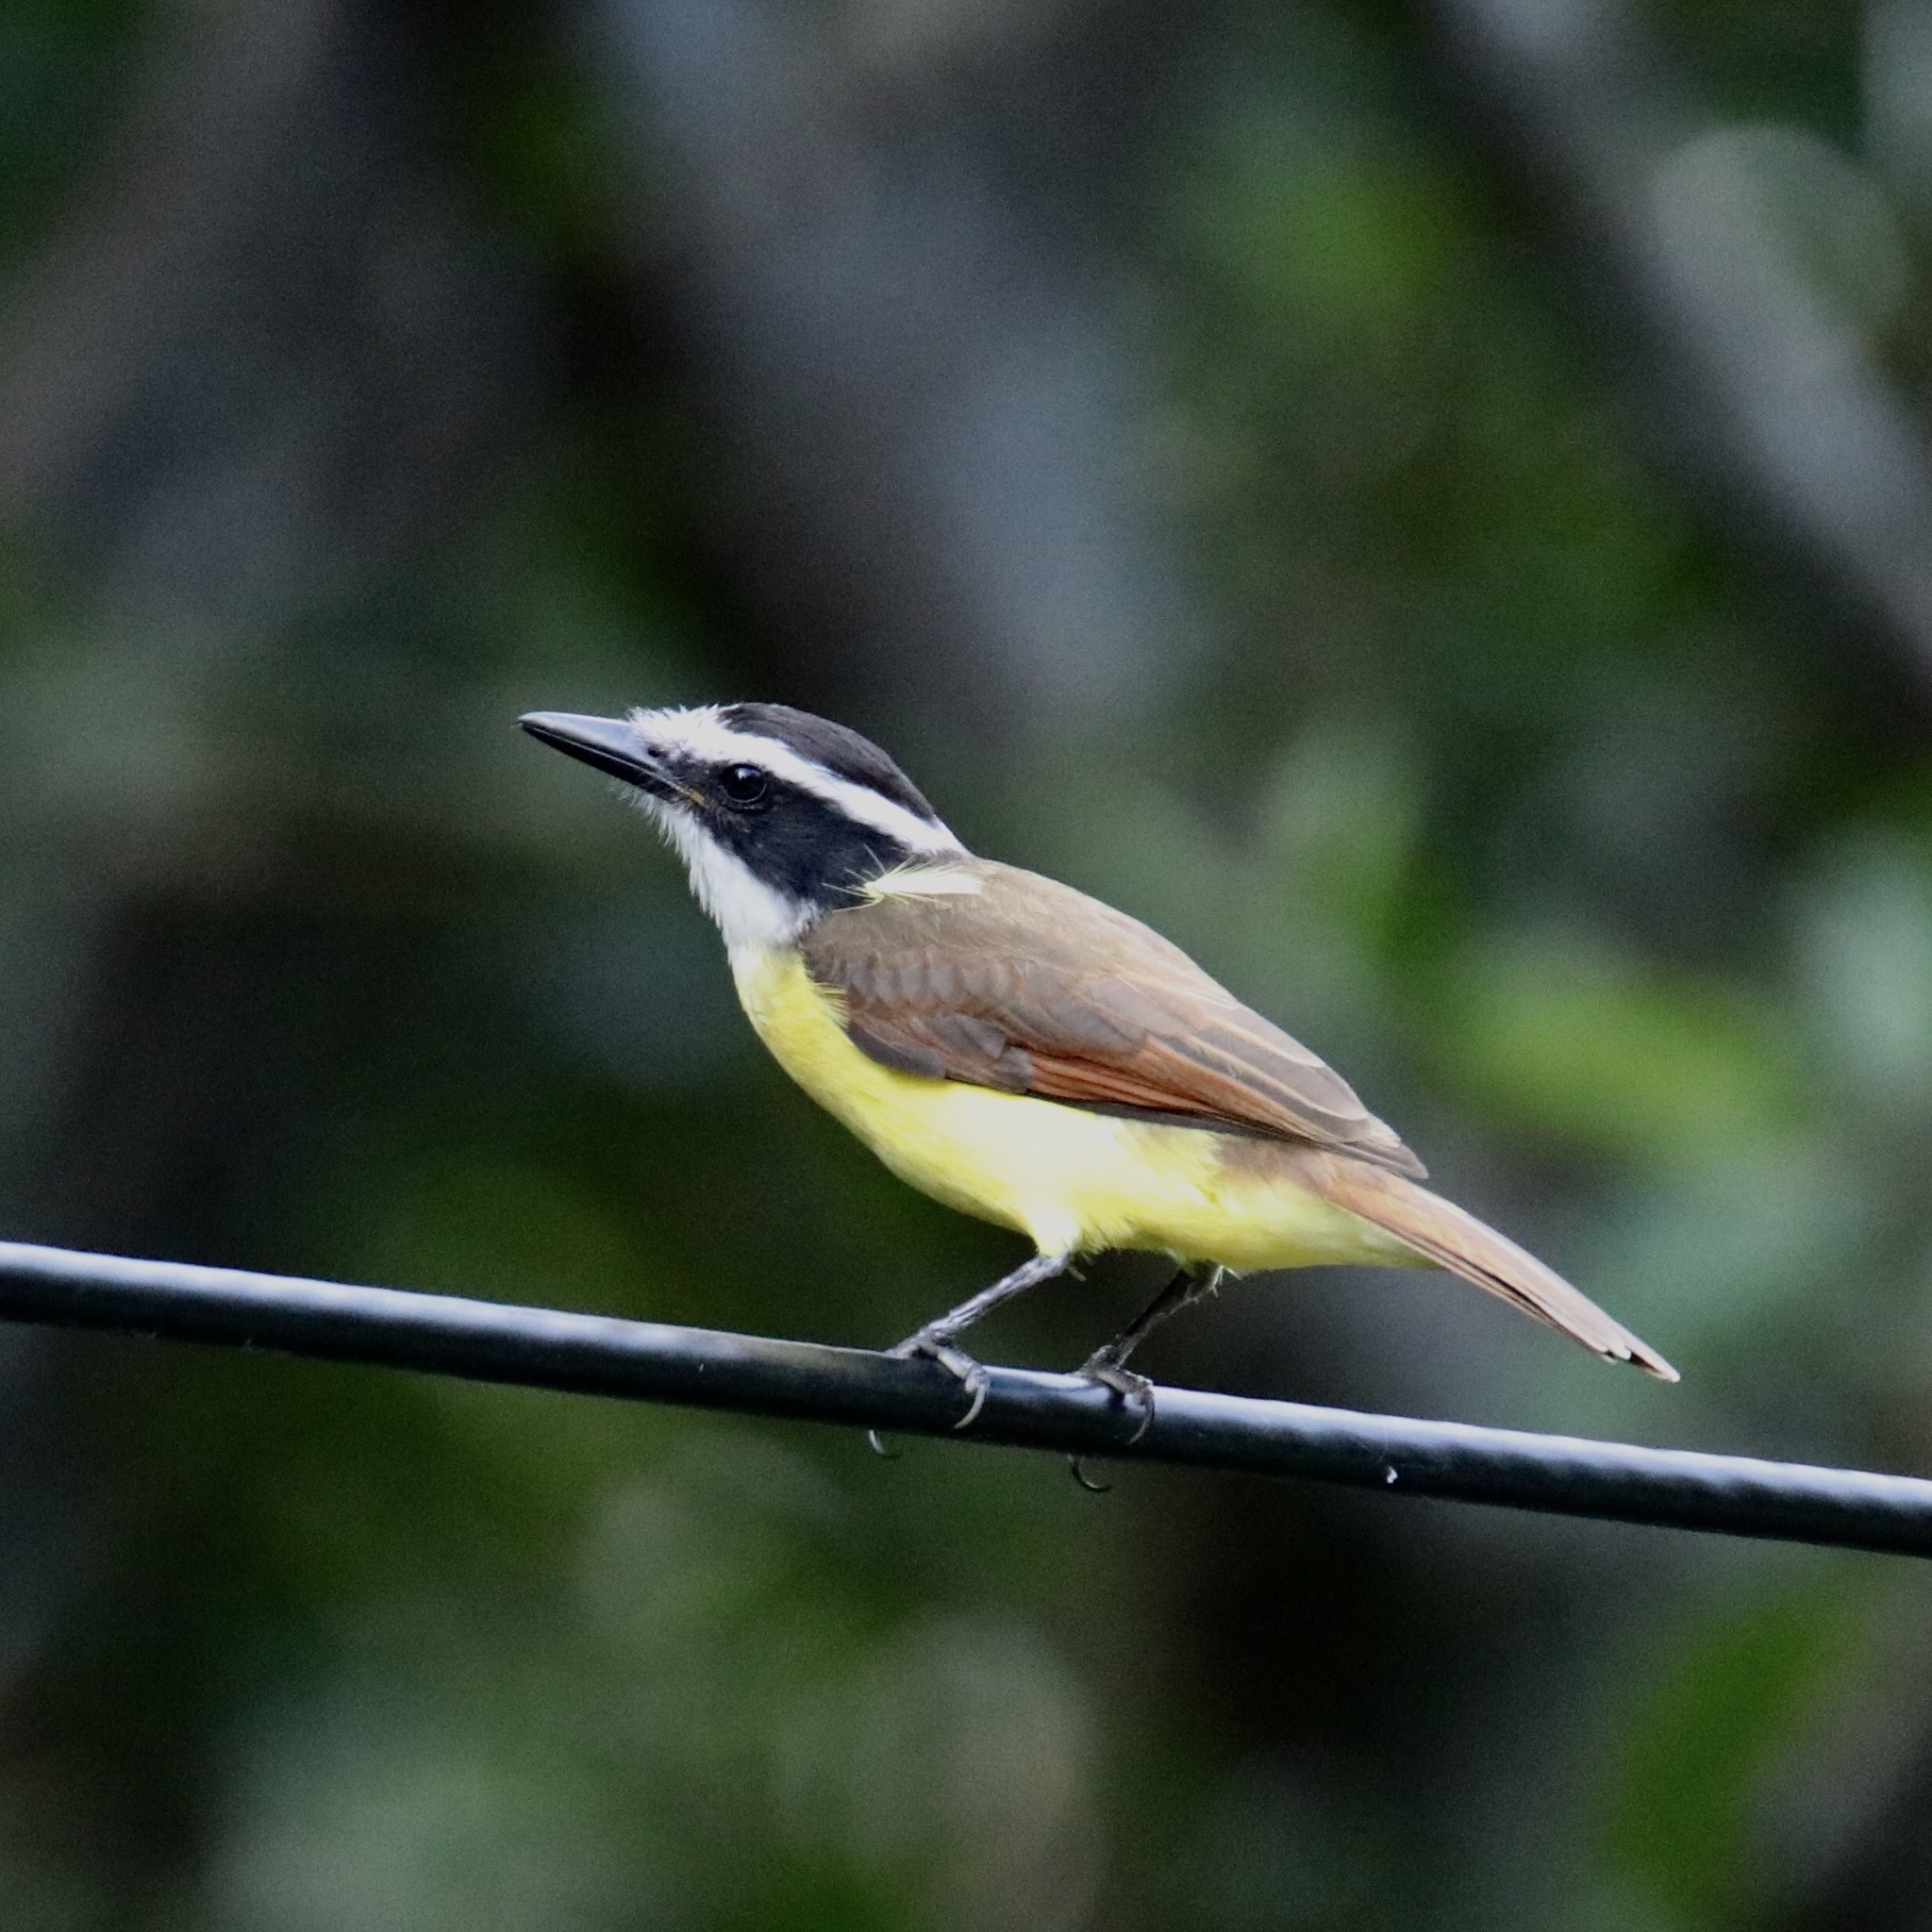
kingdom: Animalia
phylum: Chordata
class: Aves
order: Passeriformes
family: Tyrannidae
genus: Pitangus
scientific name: Pitangus sulphuratus
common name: Great kiskadee
